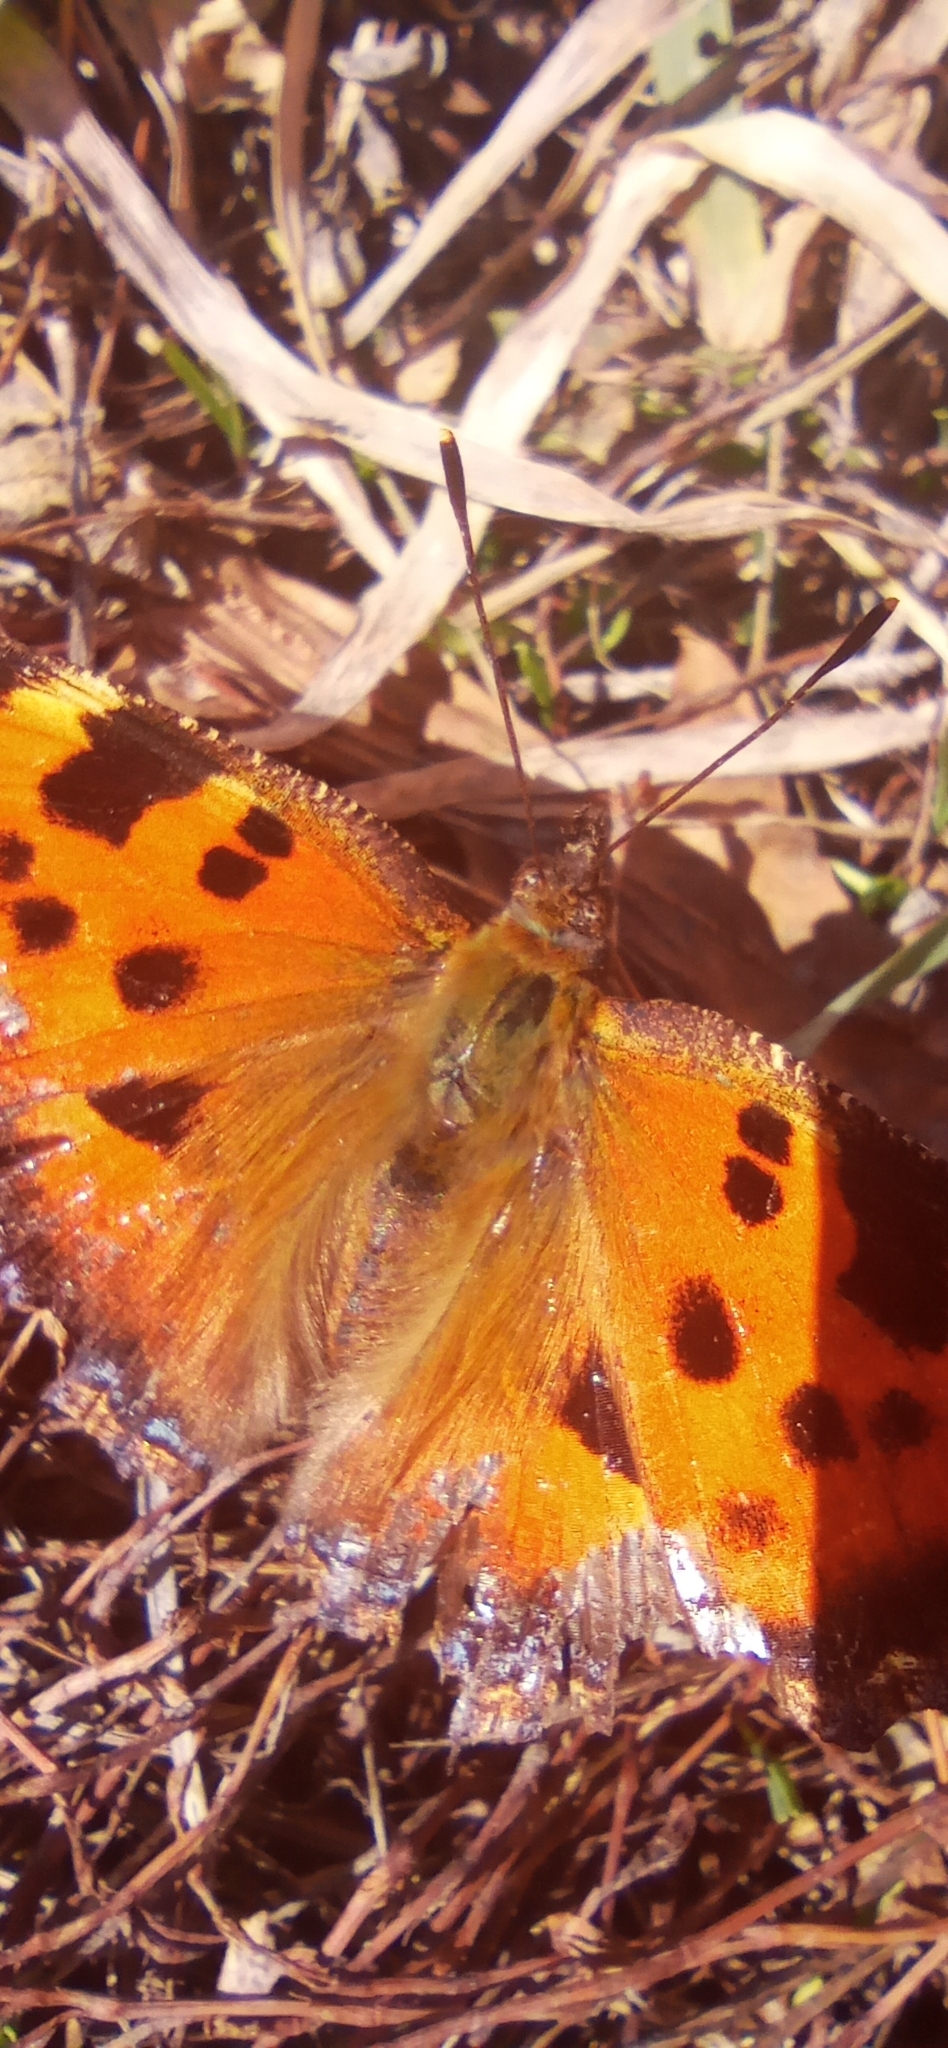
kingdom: Animalia
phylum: Arthropoda
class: Insecta
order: Lepidoptera
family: Nymphalidae
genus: Nymphalis
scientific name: Nymphalis xanthomelas
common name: Scarce tortoiseshell
